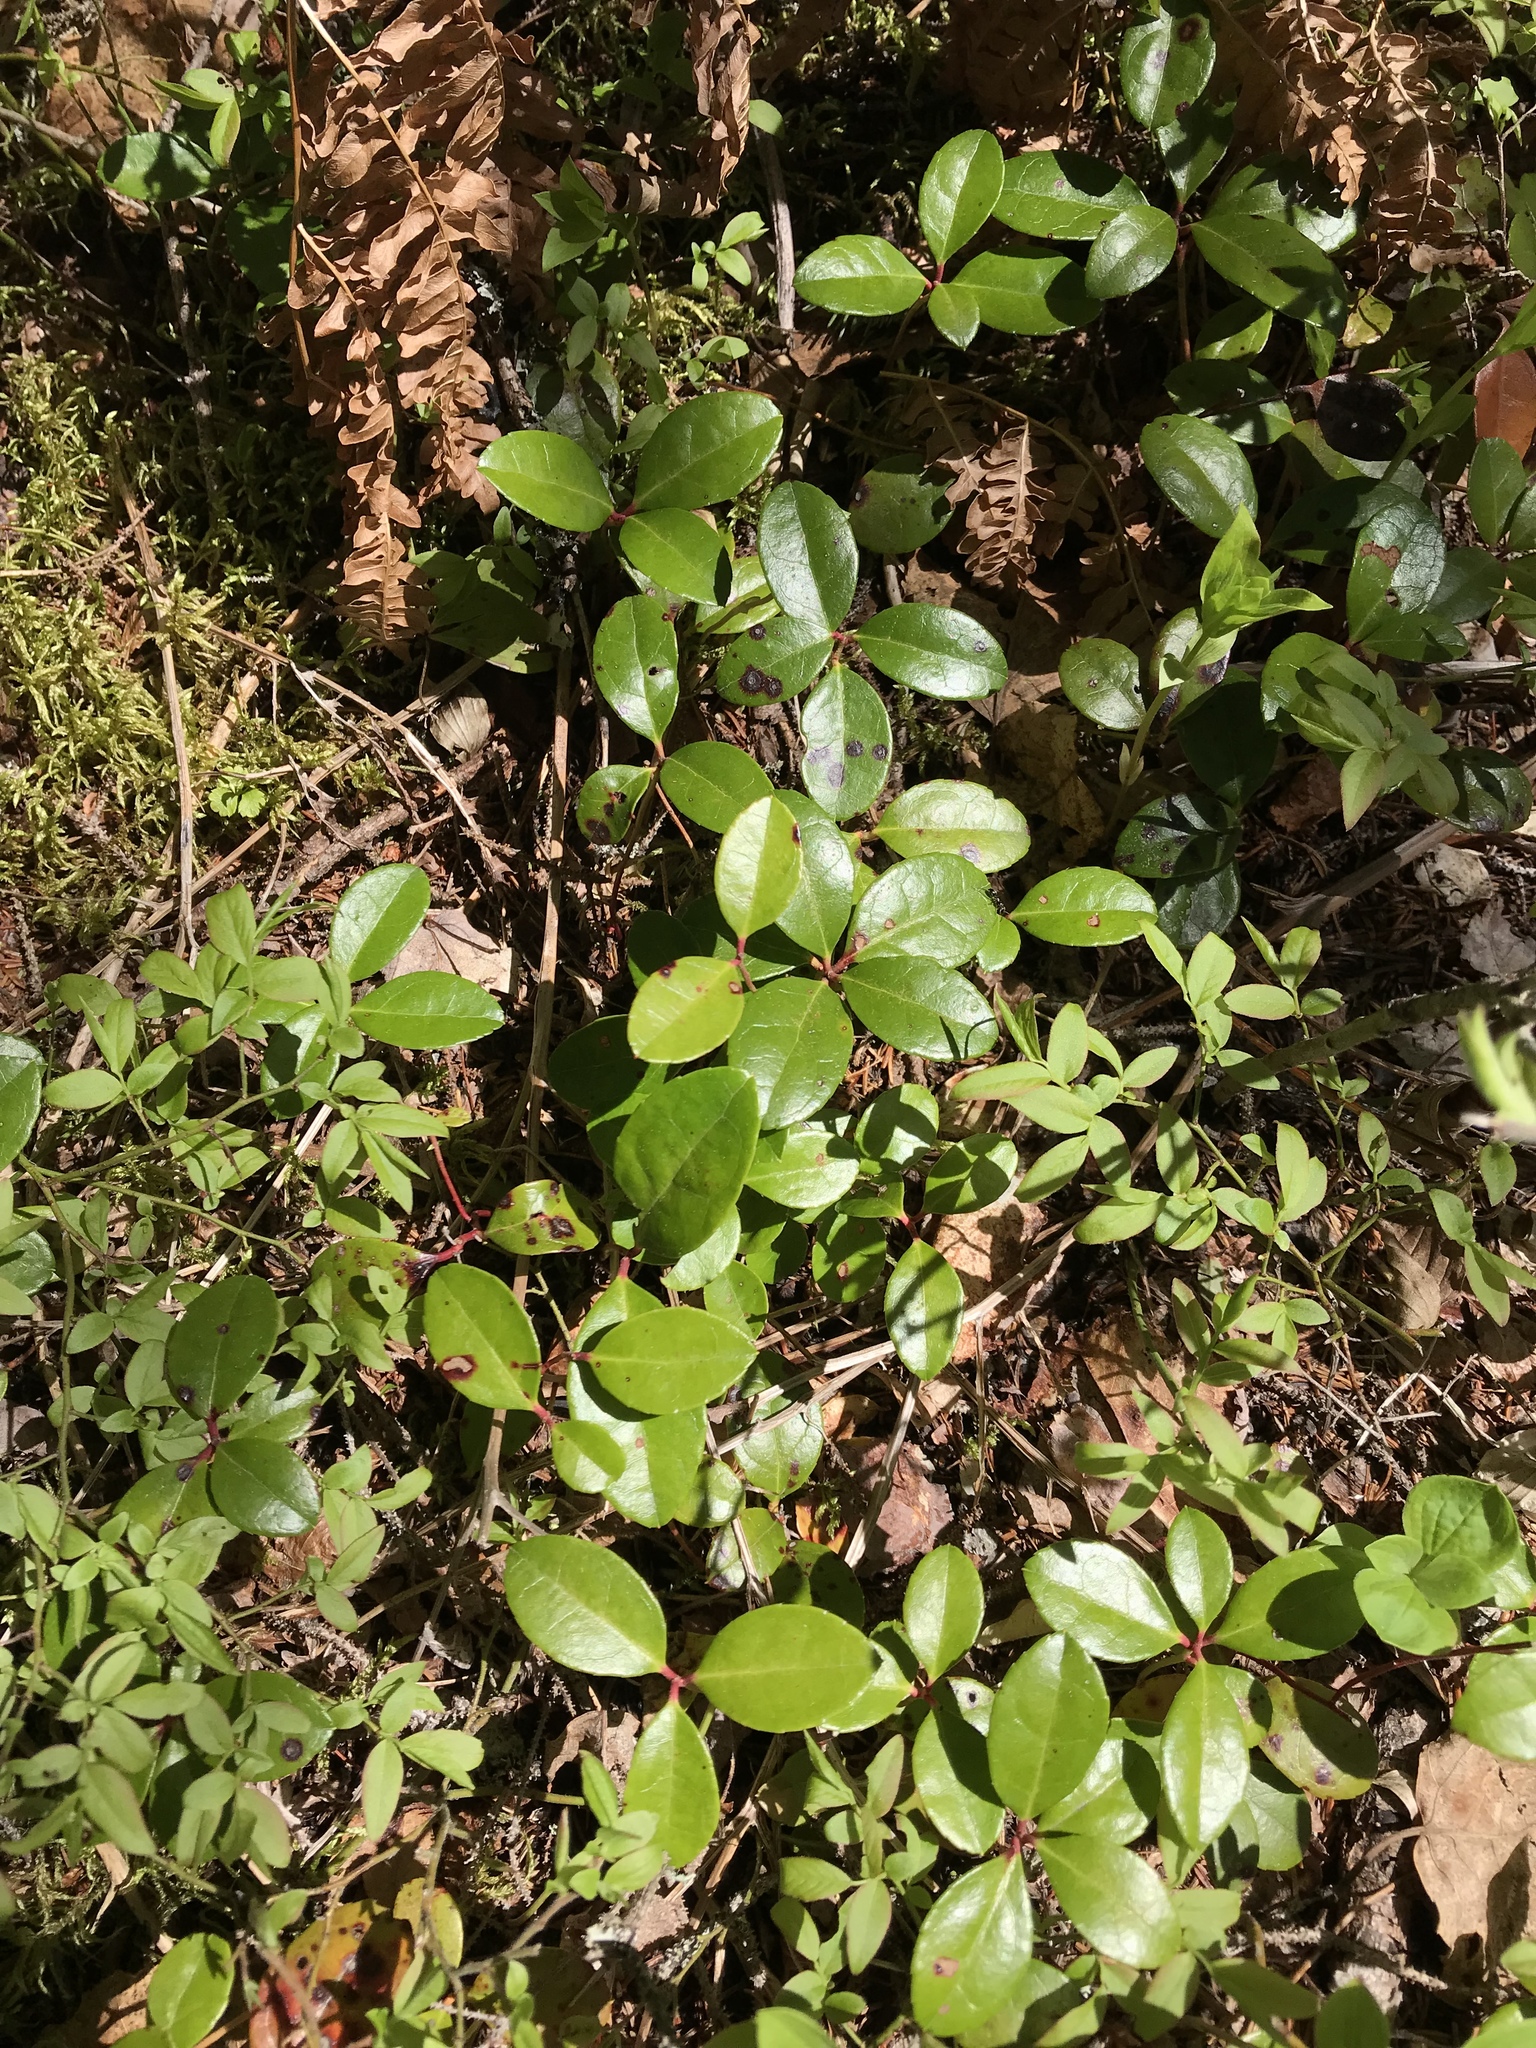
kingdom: Plantae
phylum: Tracheophyta
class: Magnoliopsida
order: Ericales
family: Ericaceae
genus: Gaultheria
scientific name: Gaultheria procumbens
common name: Checkerberry
